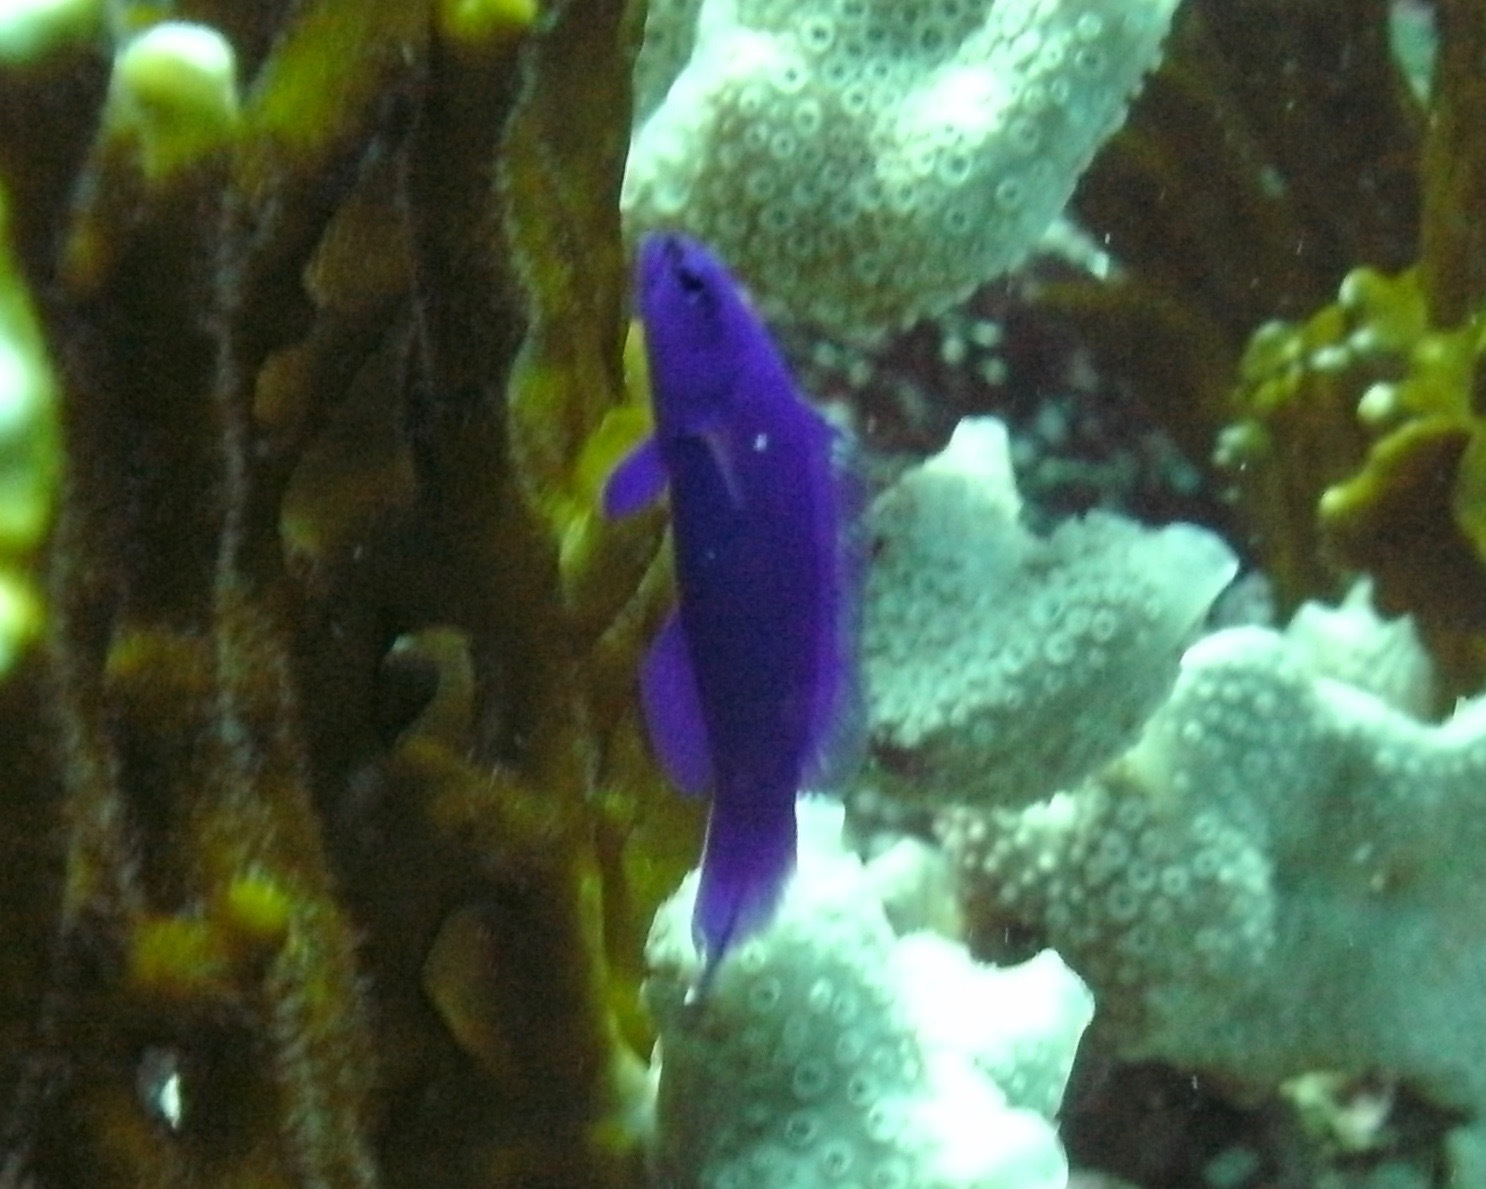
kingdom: Animalia
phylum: Chordata
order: Perciformes
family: Pseudochromidae
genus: Pseudochromis
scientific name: Pseudochromis fridmani
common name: Orchid dottyback
